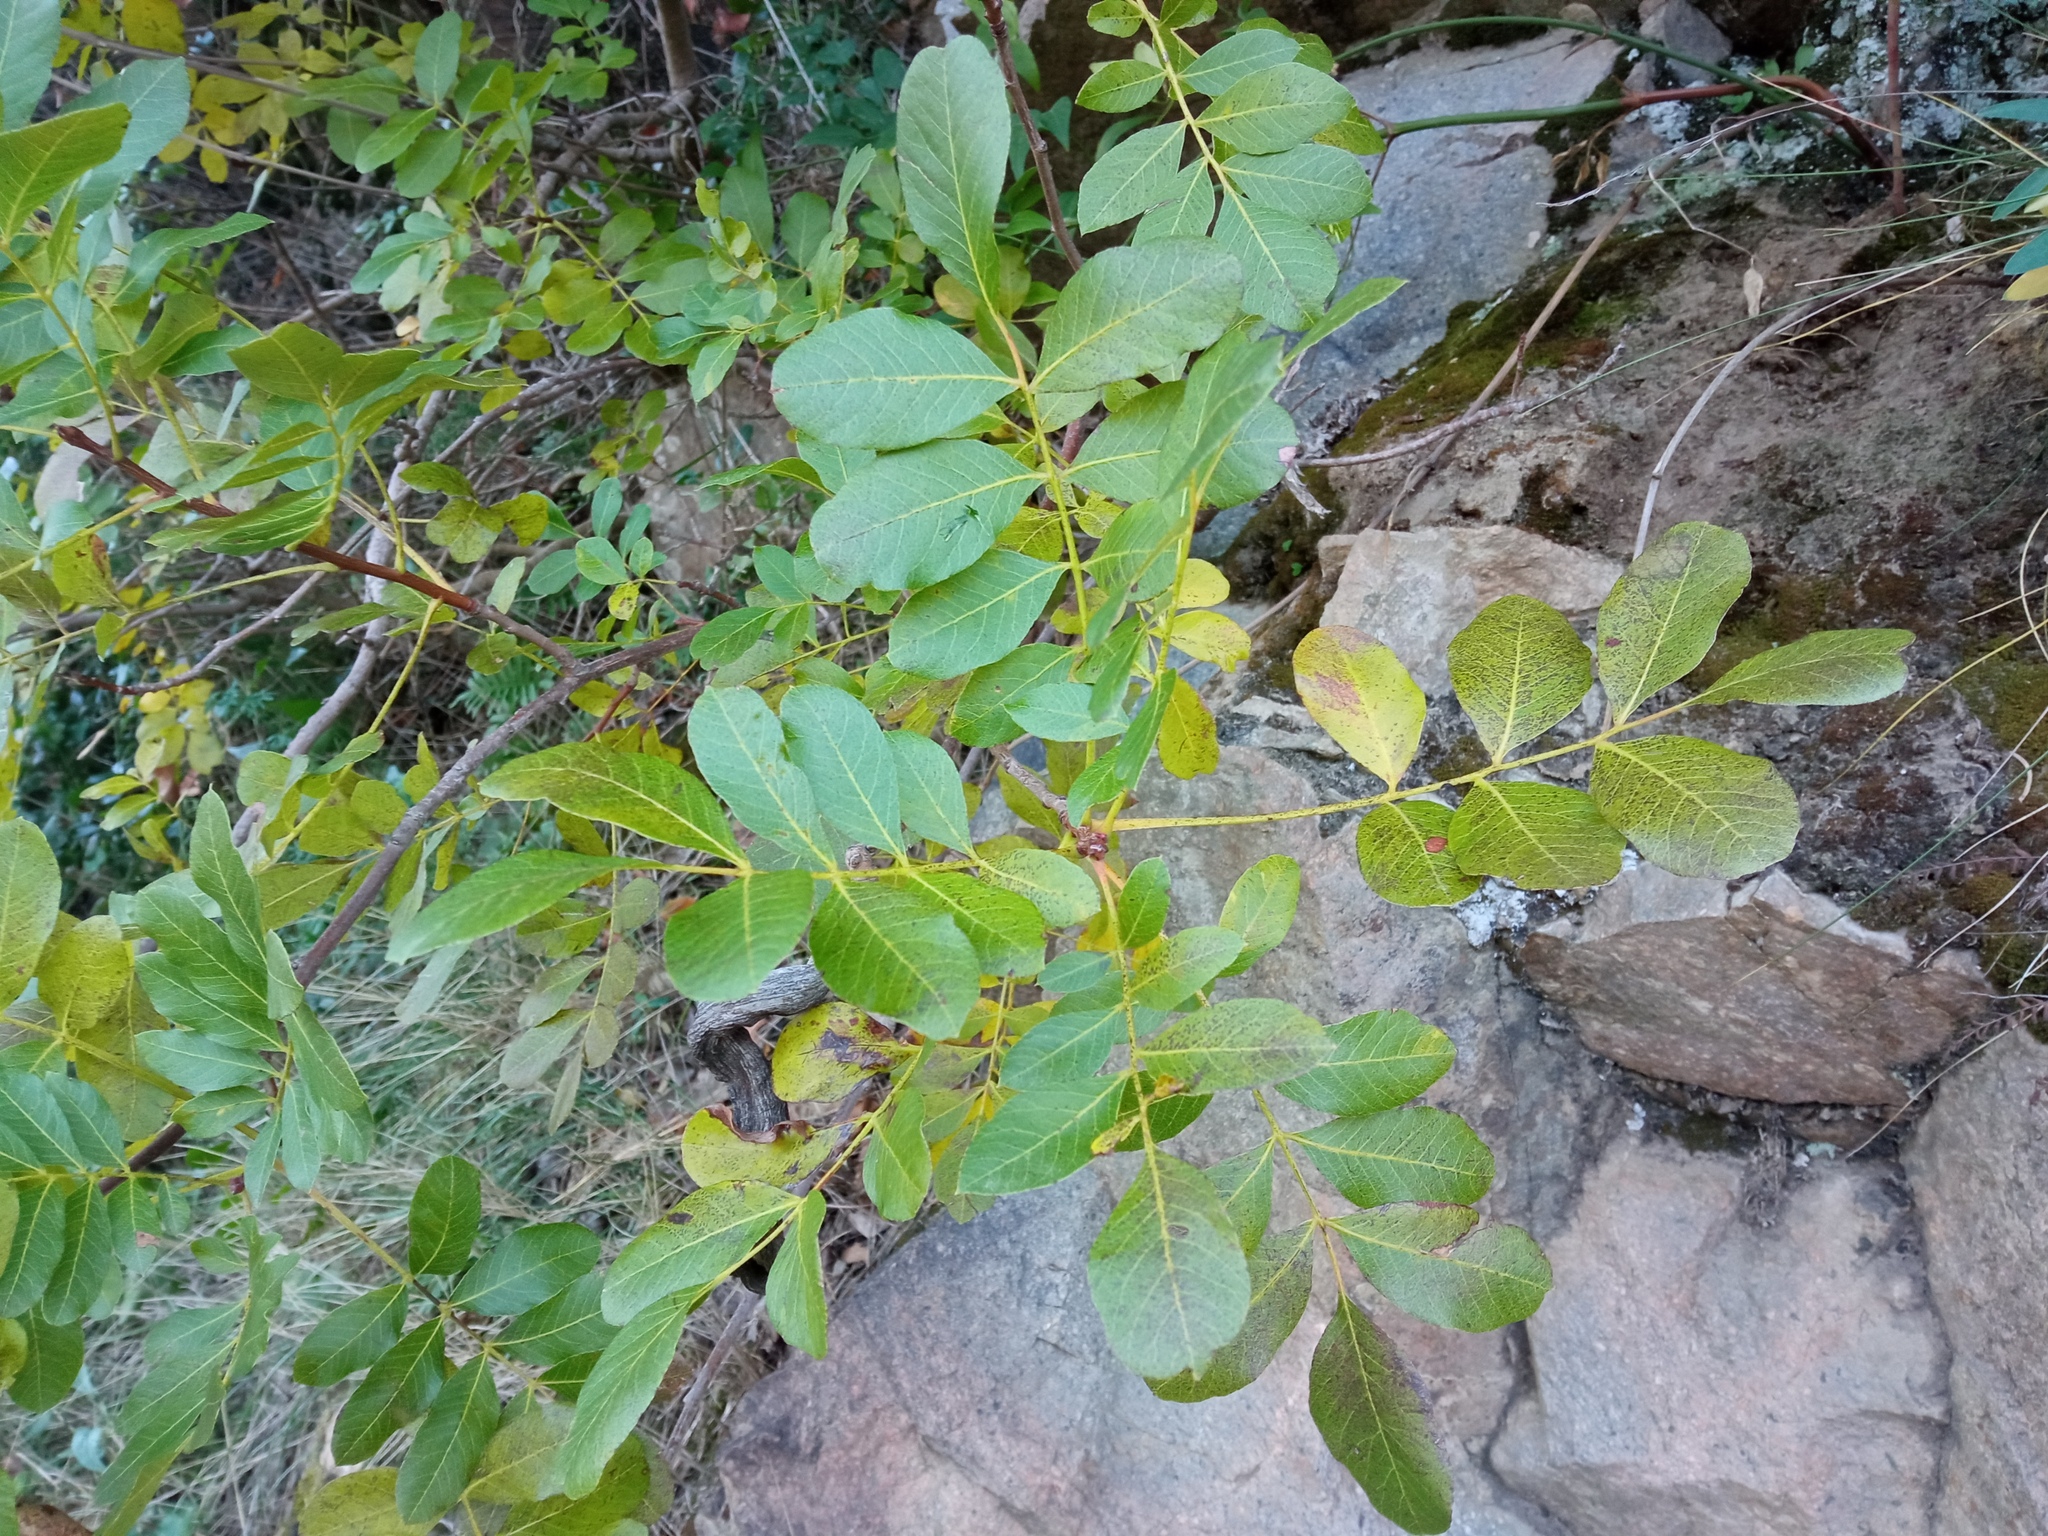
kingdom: Plantae
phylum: Tracheophyta
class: Magnoliopsida
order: Sapindales
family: Anacardiaceae
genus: Pistacia
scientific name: Pistacia terebinthus
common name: Terebinth
